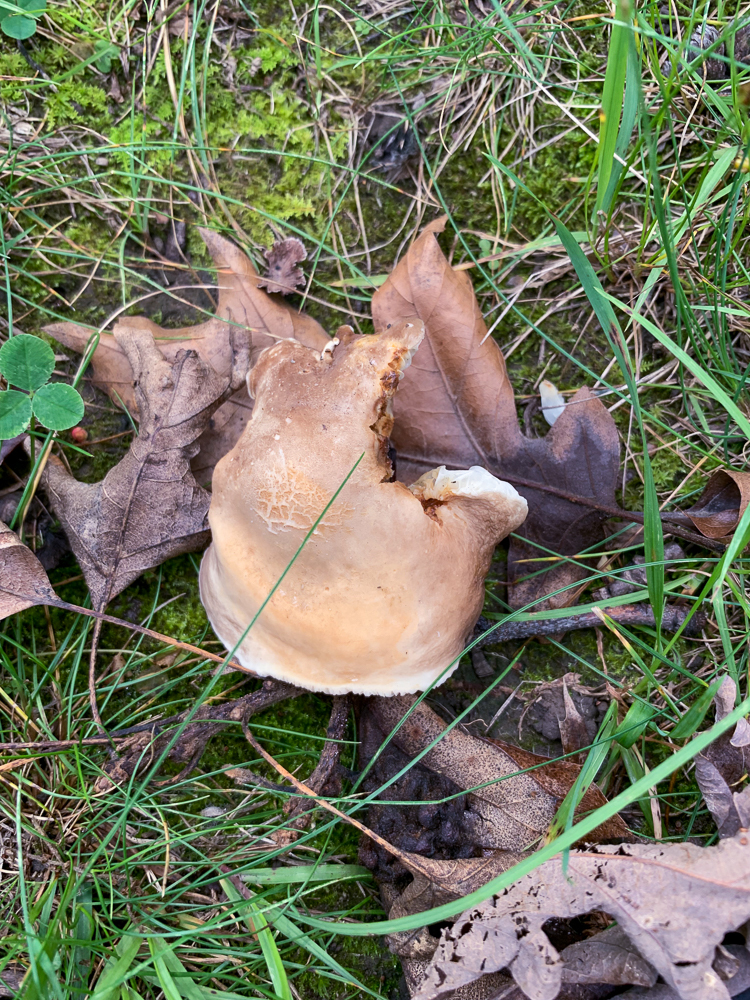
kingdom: Fungi
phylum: Basidiomycota
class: Agaricomycetes
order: Russulales
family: Russulaceae
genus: Lactarius
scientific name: Lactarius gerardii
